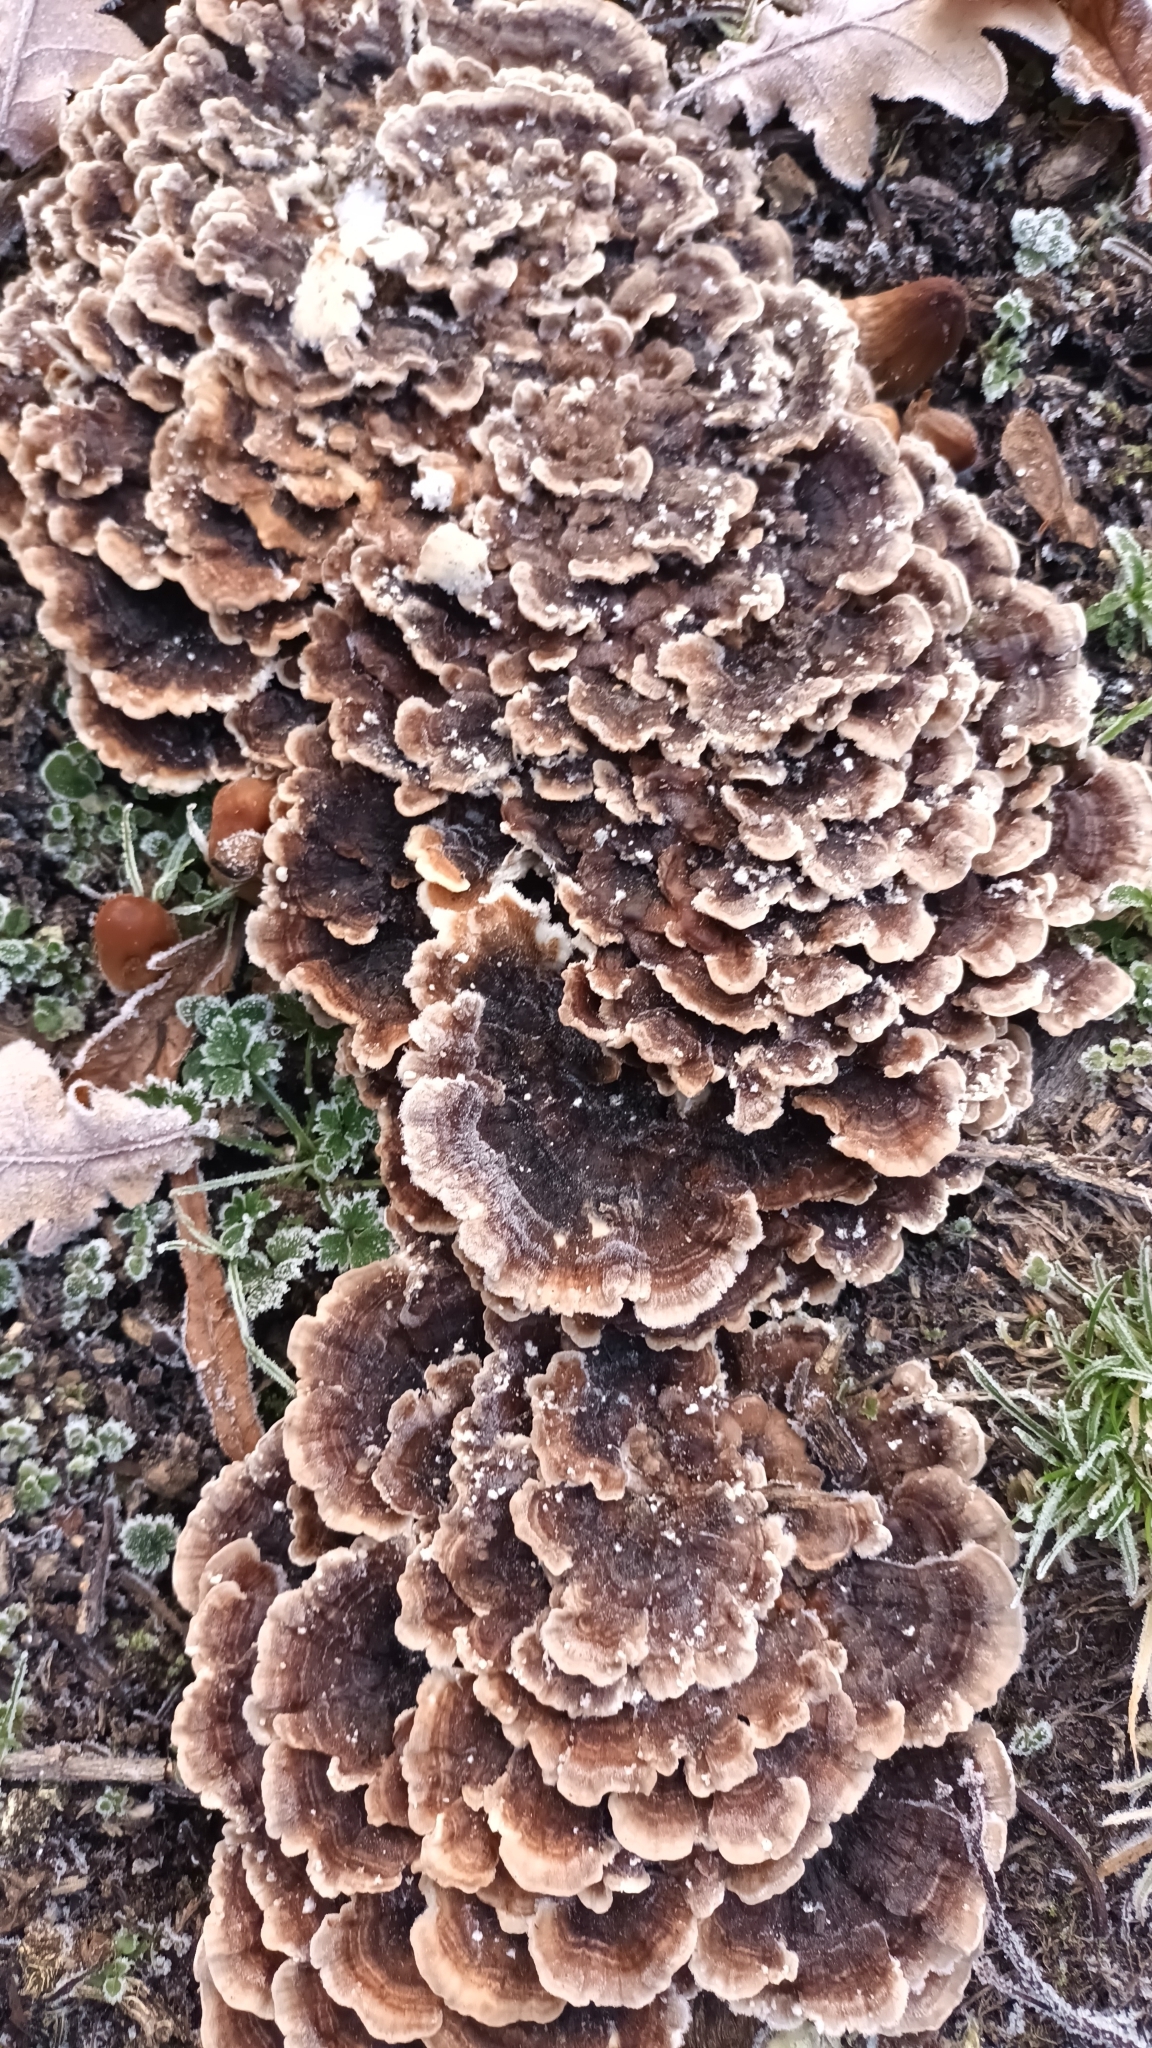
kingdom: Fungi
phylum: Basidiomycota
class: Agaricomycetes
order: Polyporales
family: Polyporaceae
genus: Trametes
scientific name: Trametes versicolor
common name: Turkeytail
